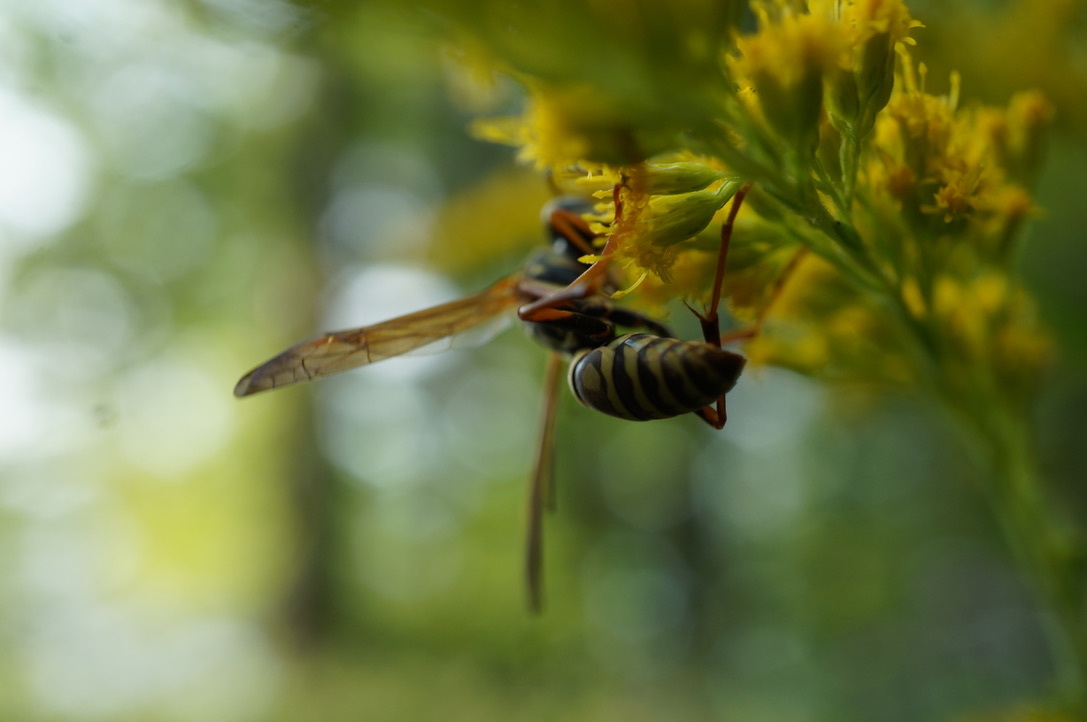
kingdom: Animalia
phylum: Arthropoda
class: Insecta
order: Hymenoptera
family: Eumenidae
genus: Polistes
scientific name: Polistes fuscatus
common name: Dark paper wasp
